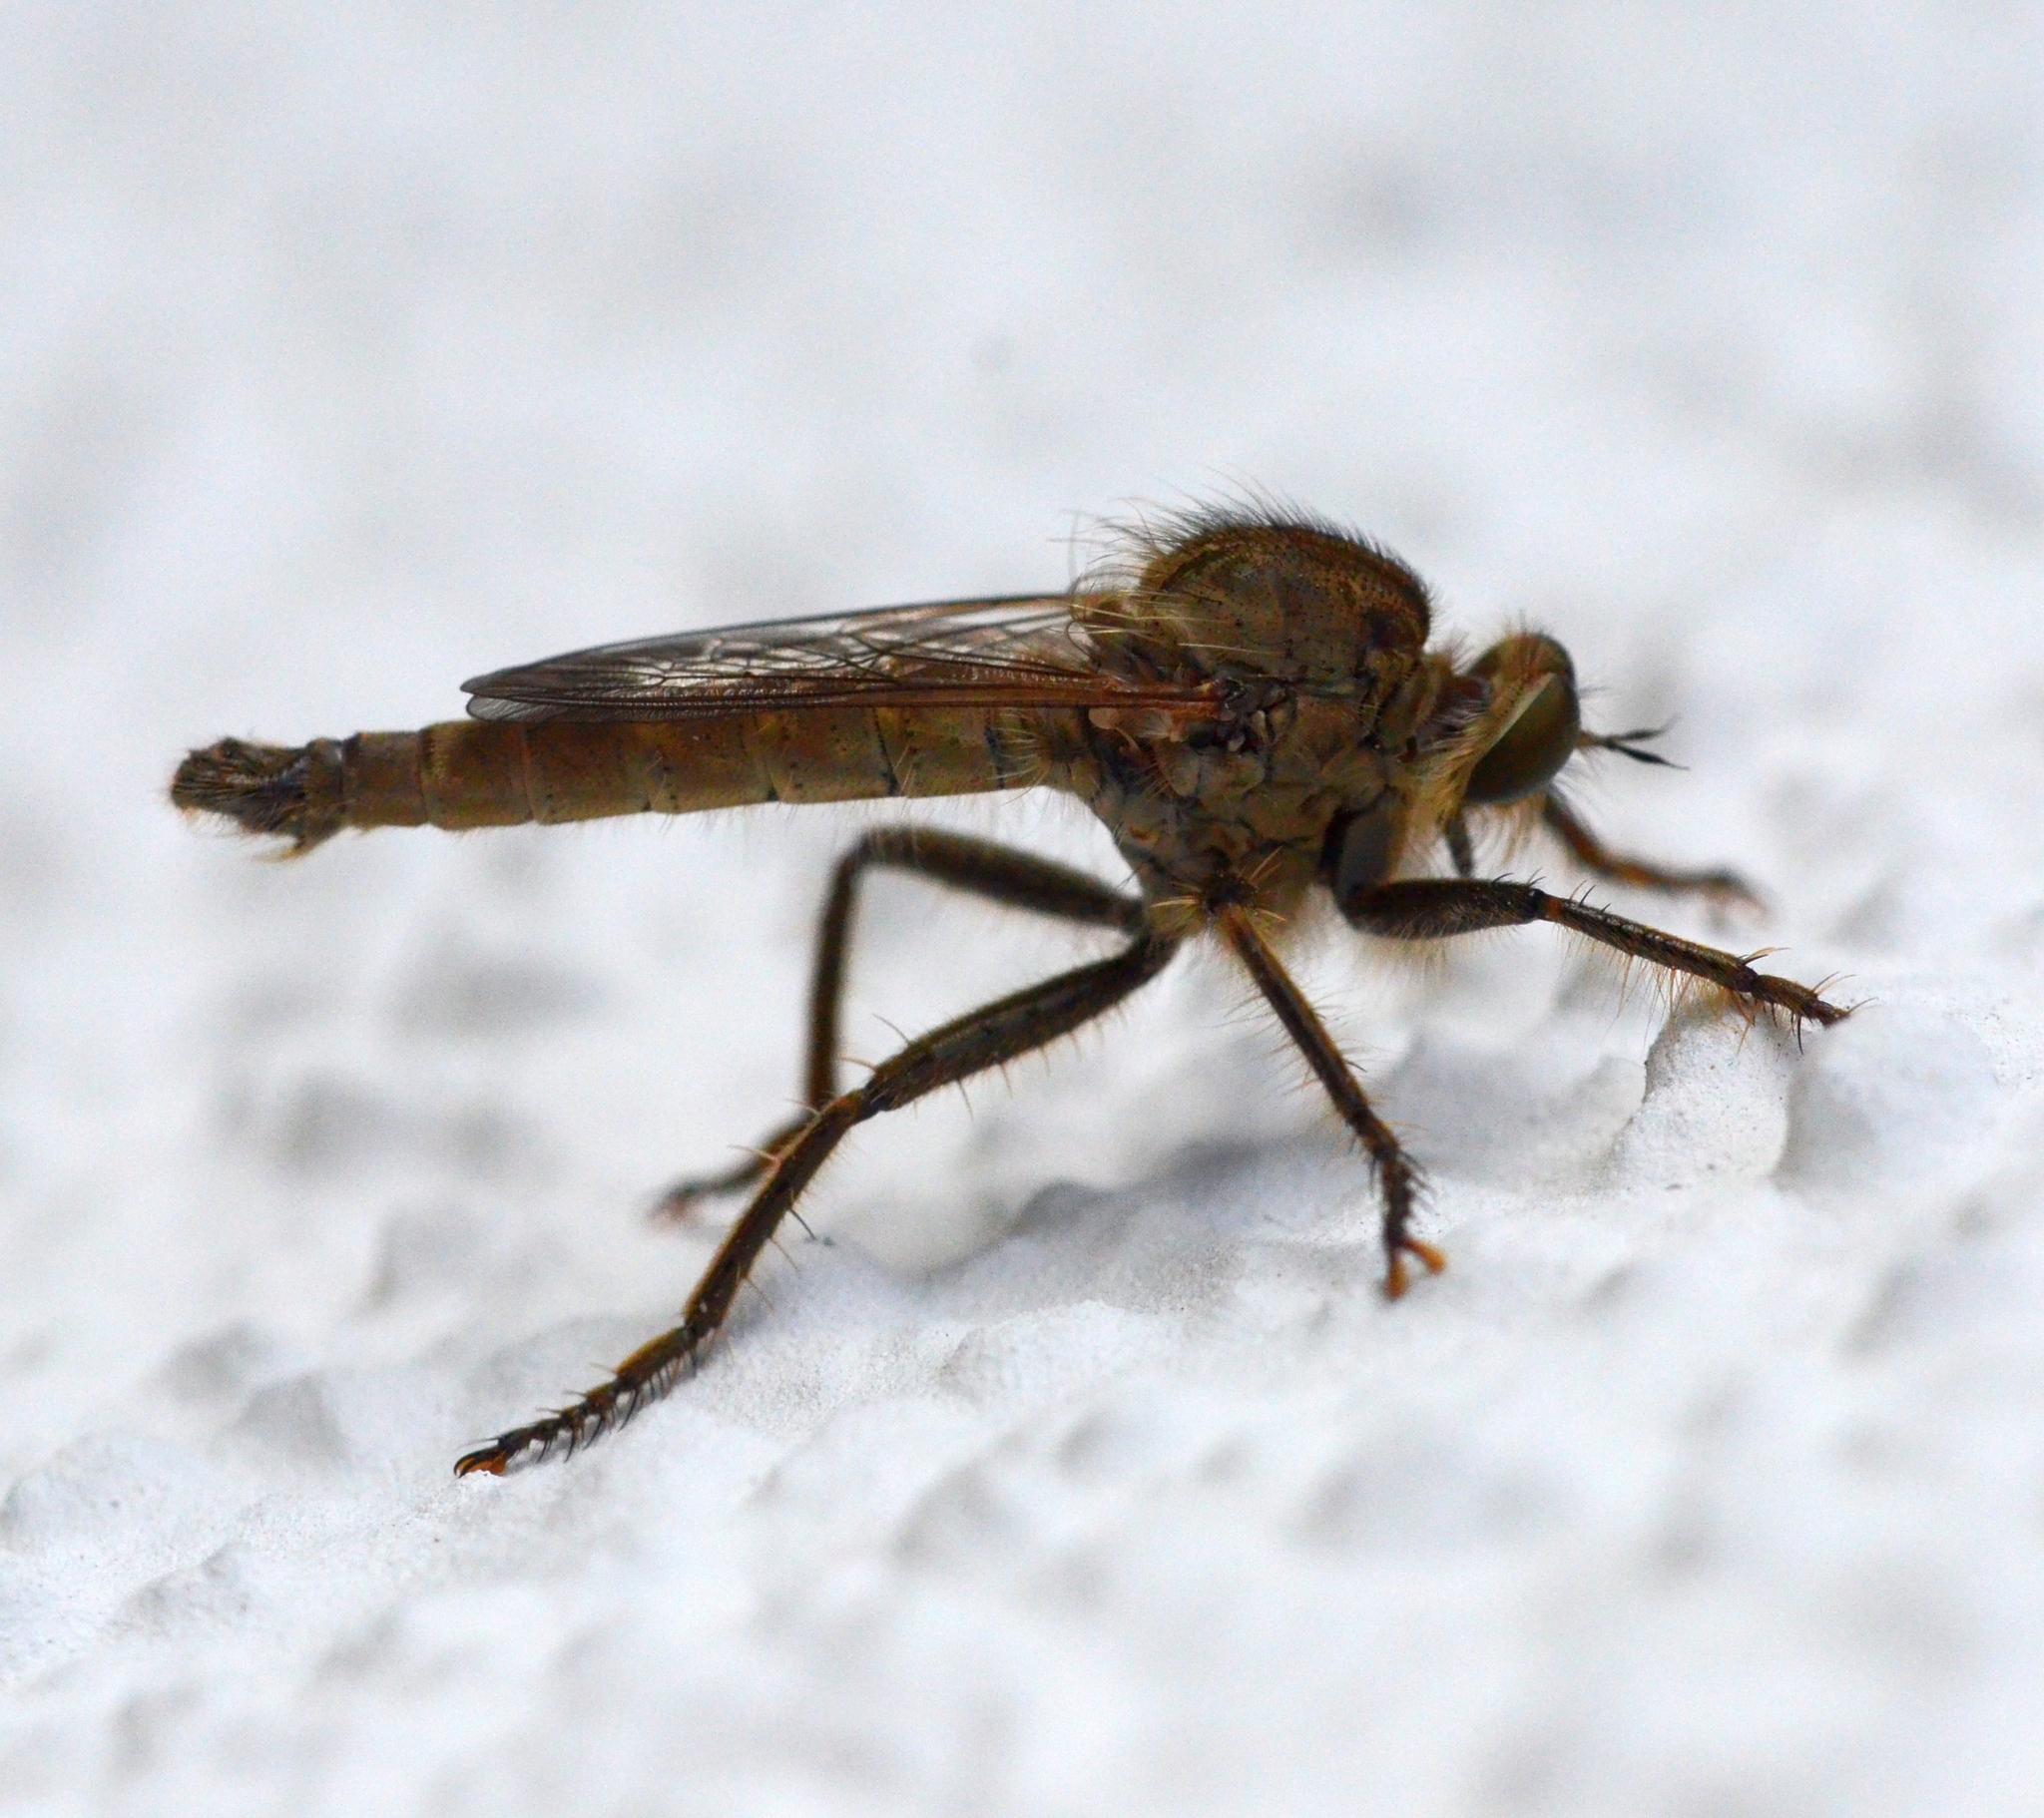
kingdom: Animalia
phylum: Arthropoda
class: Insecta
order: Diptera
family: Asilidae
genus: Machimus
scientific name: Machimus rusticus
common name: Downland robberfly
